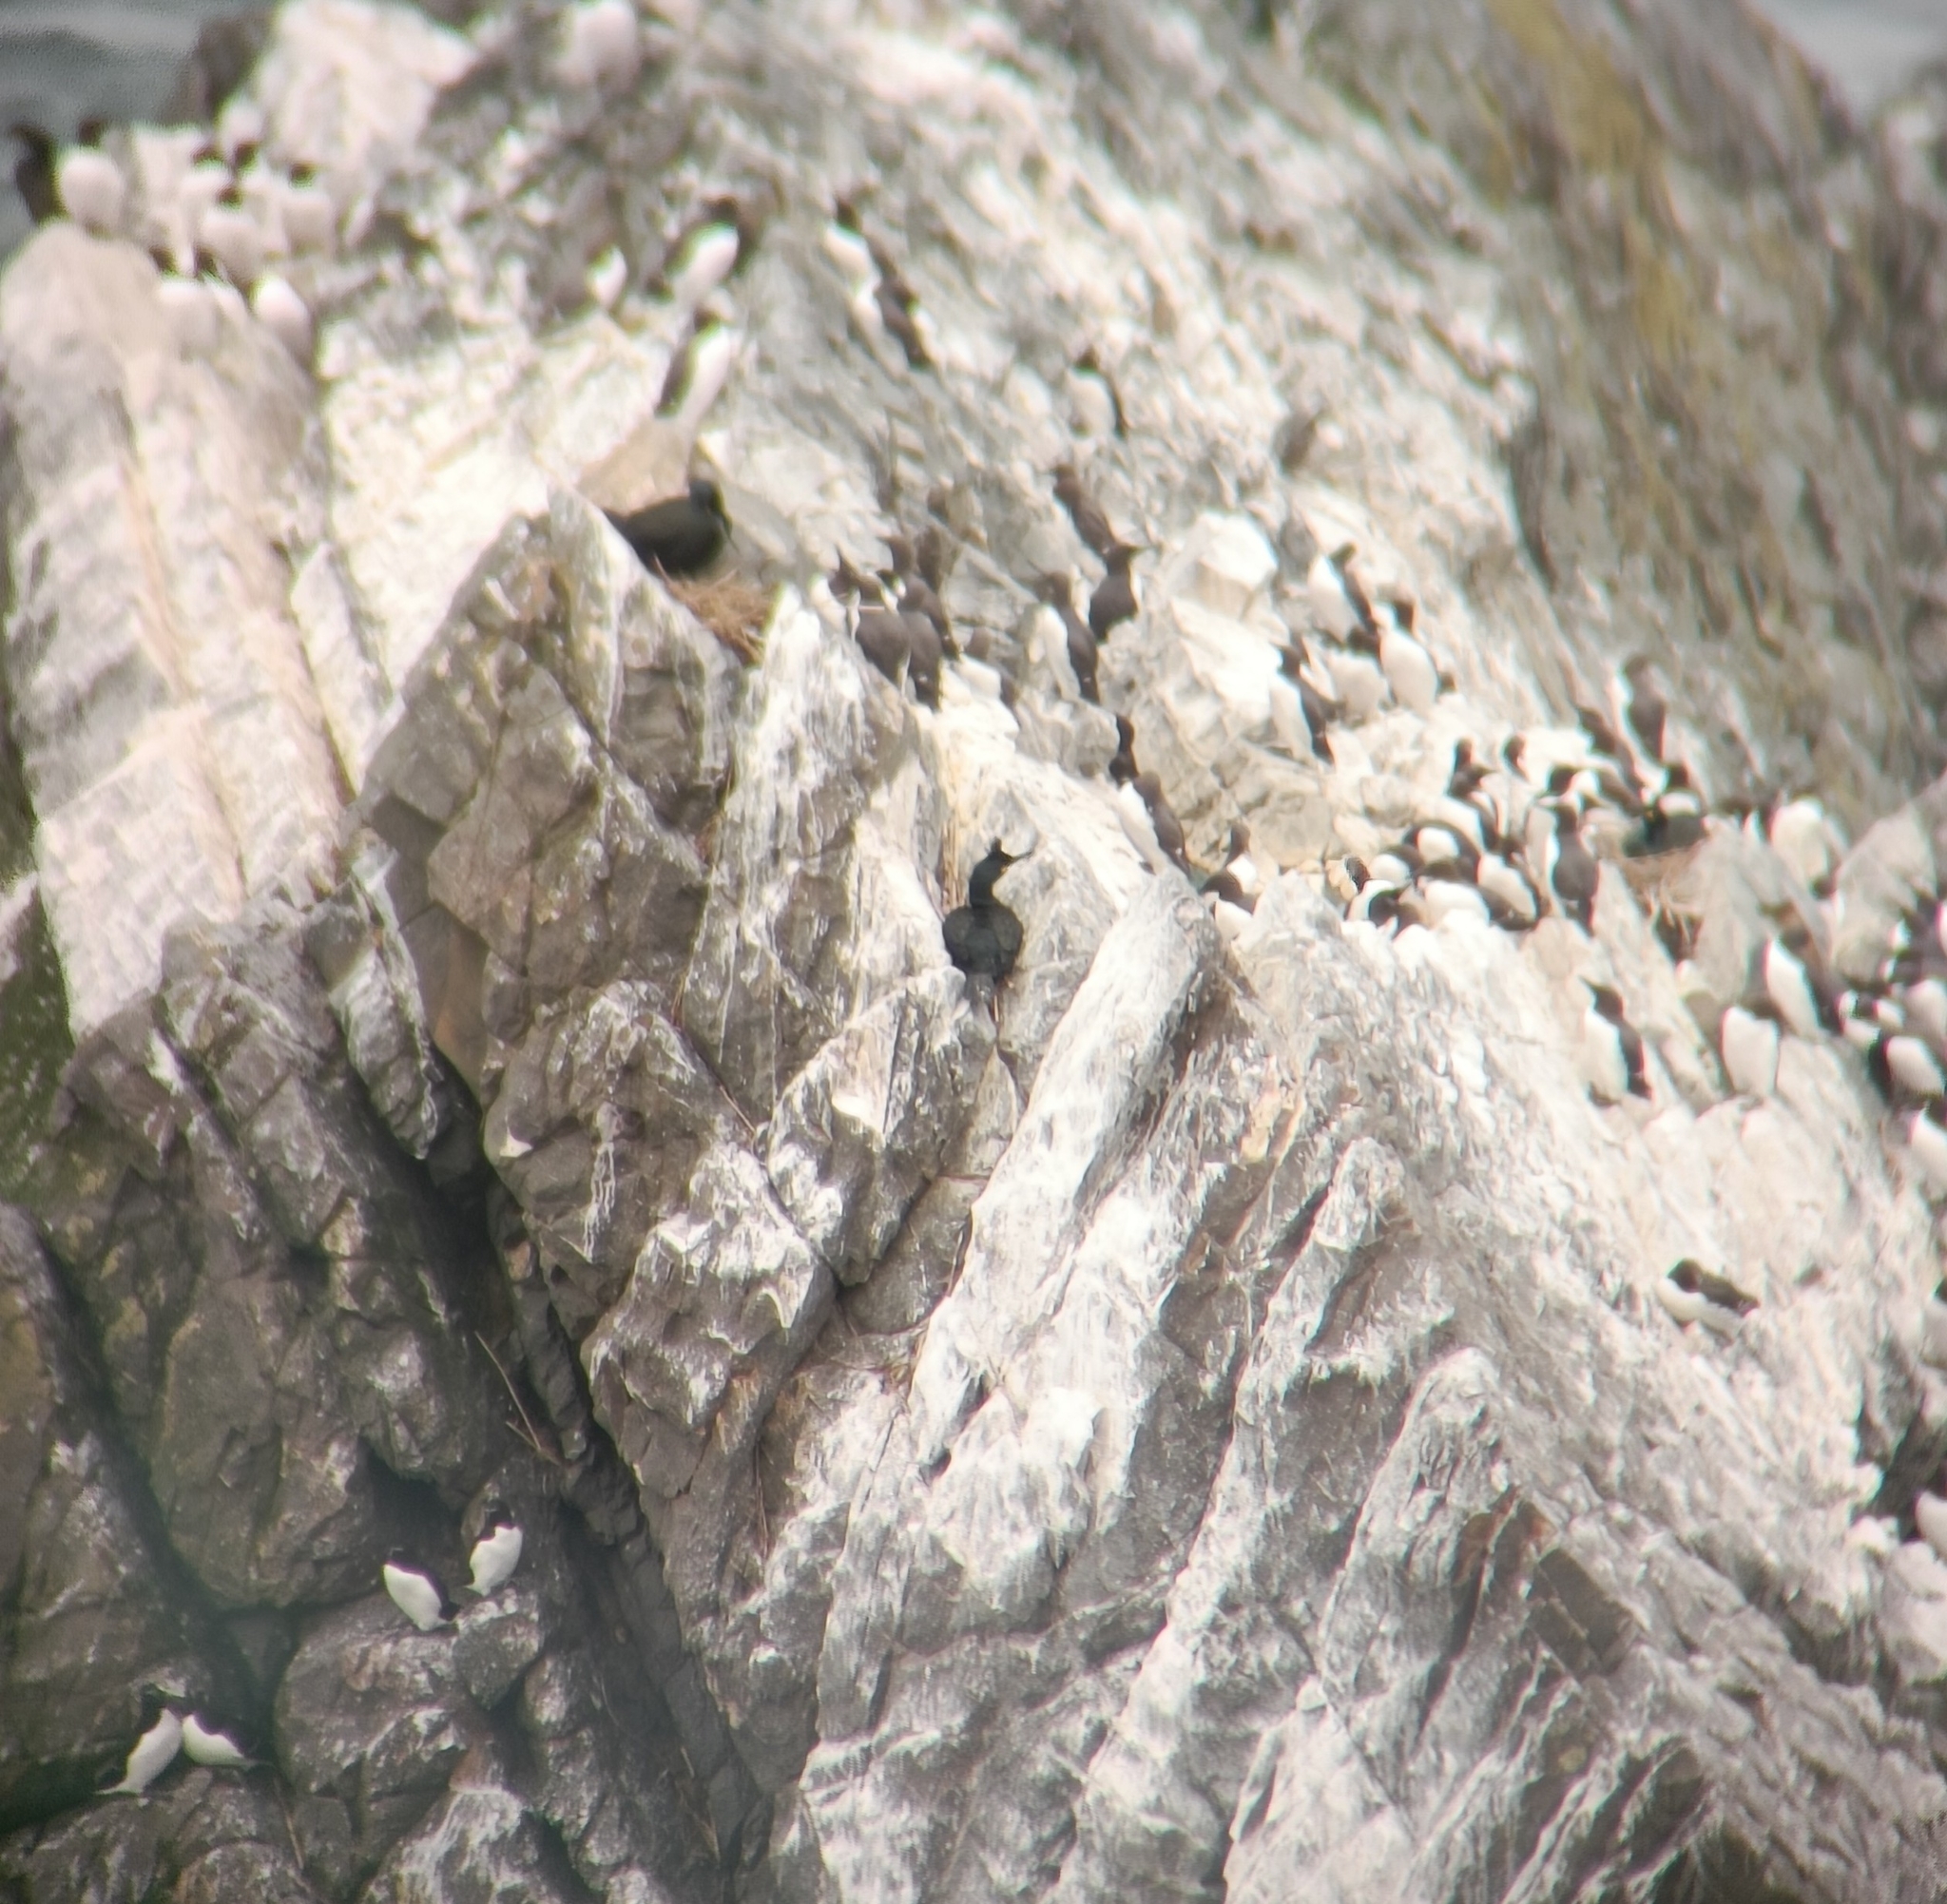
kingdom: Animalia
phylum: Chordata
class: Aves
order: Suliformes
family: Phalacrocoracidae
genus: Phalacrocorax
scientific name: Phalacrocorax aristotelis
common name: European shag
